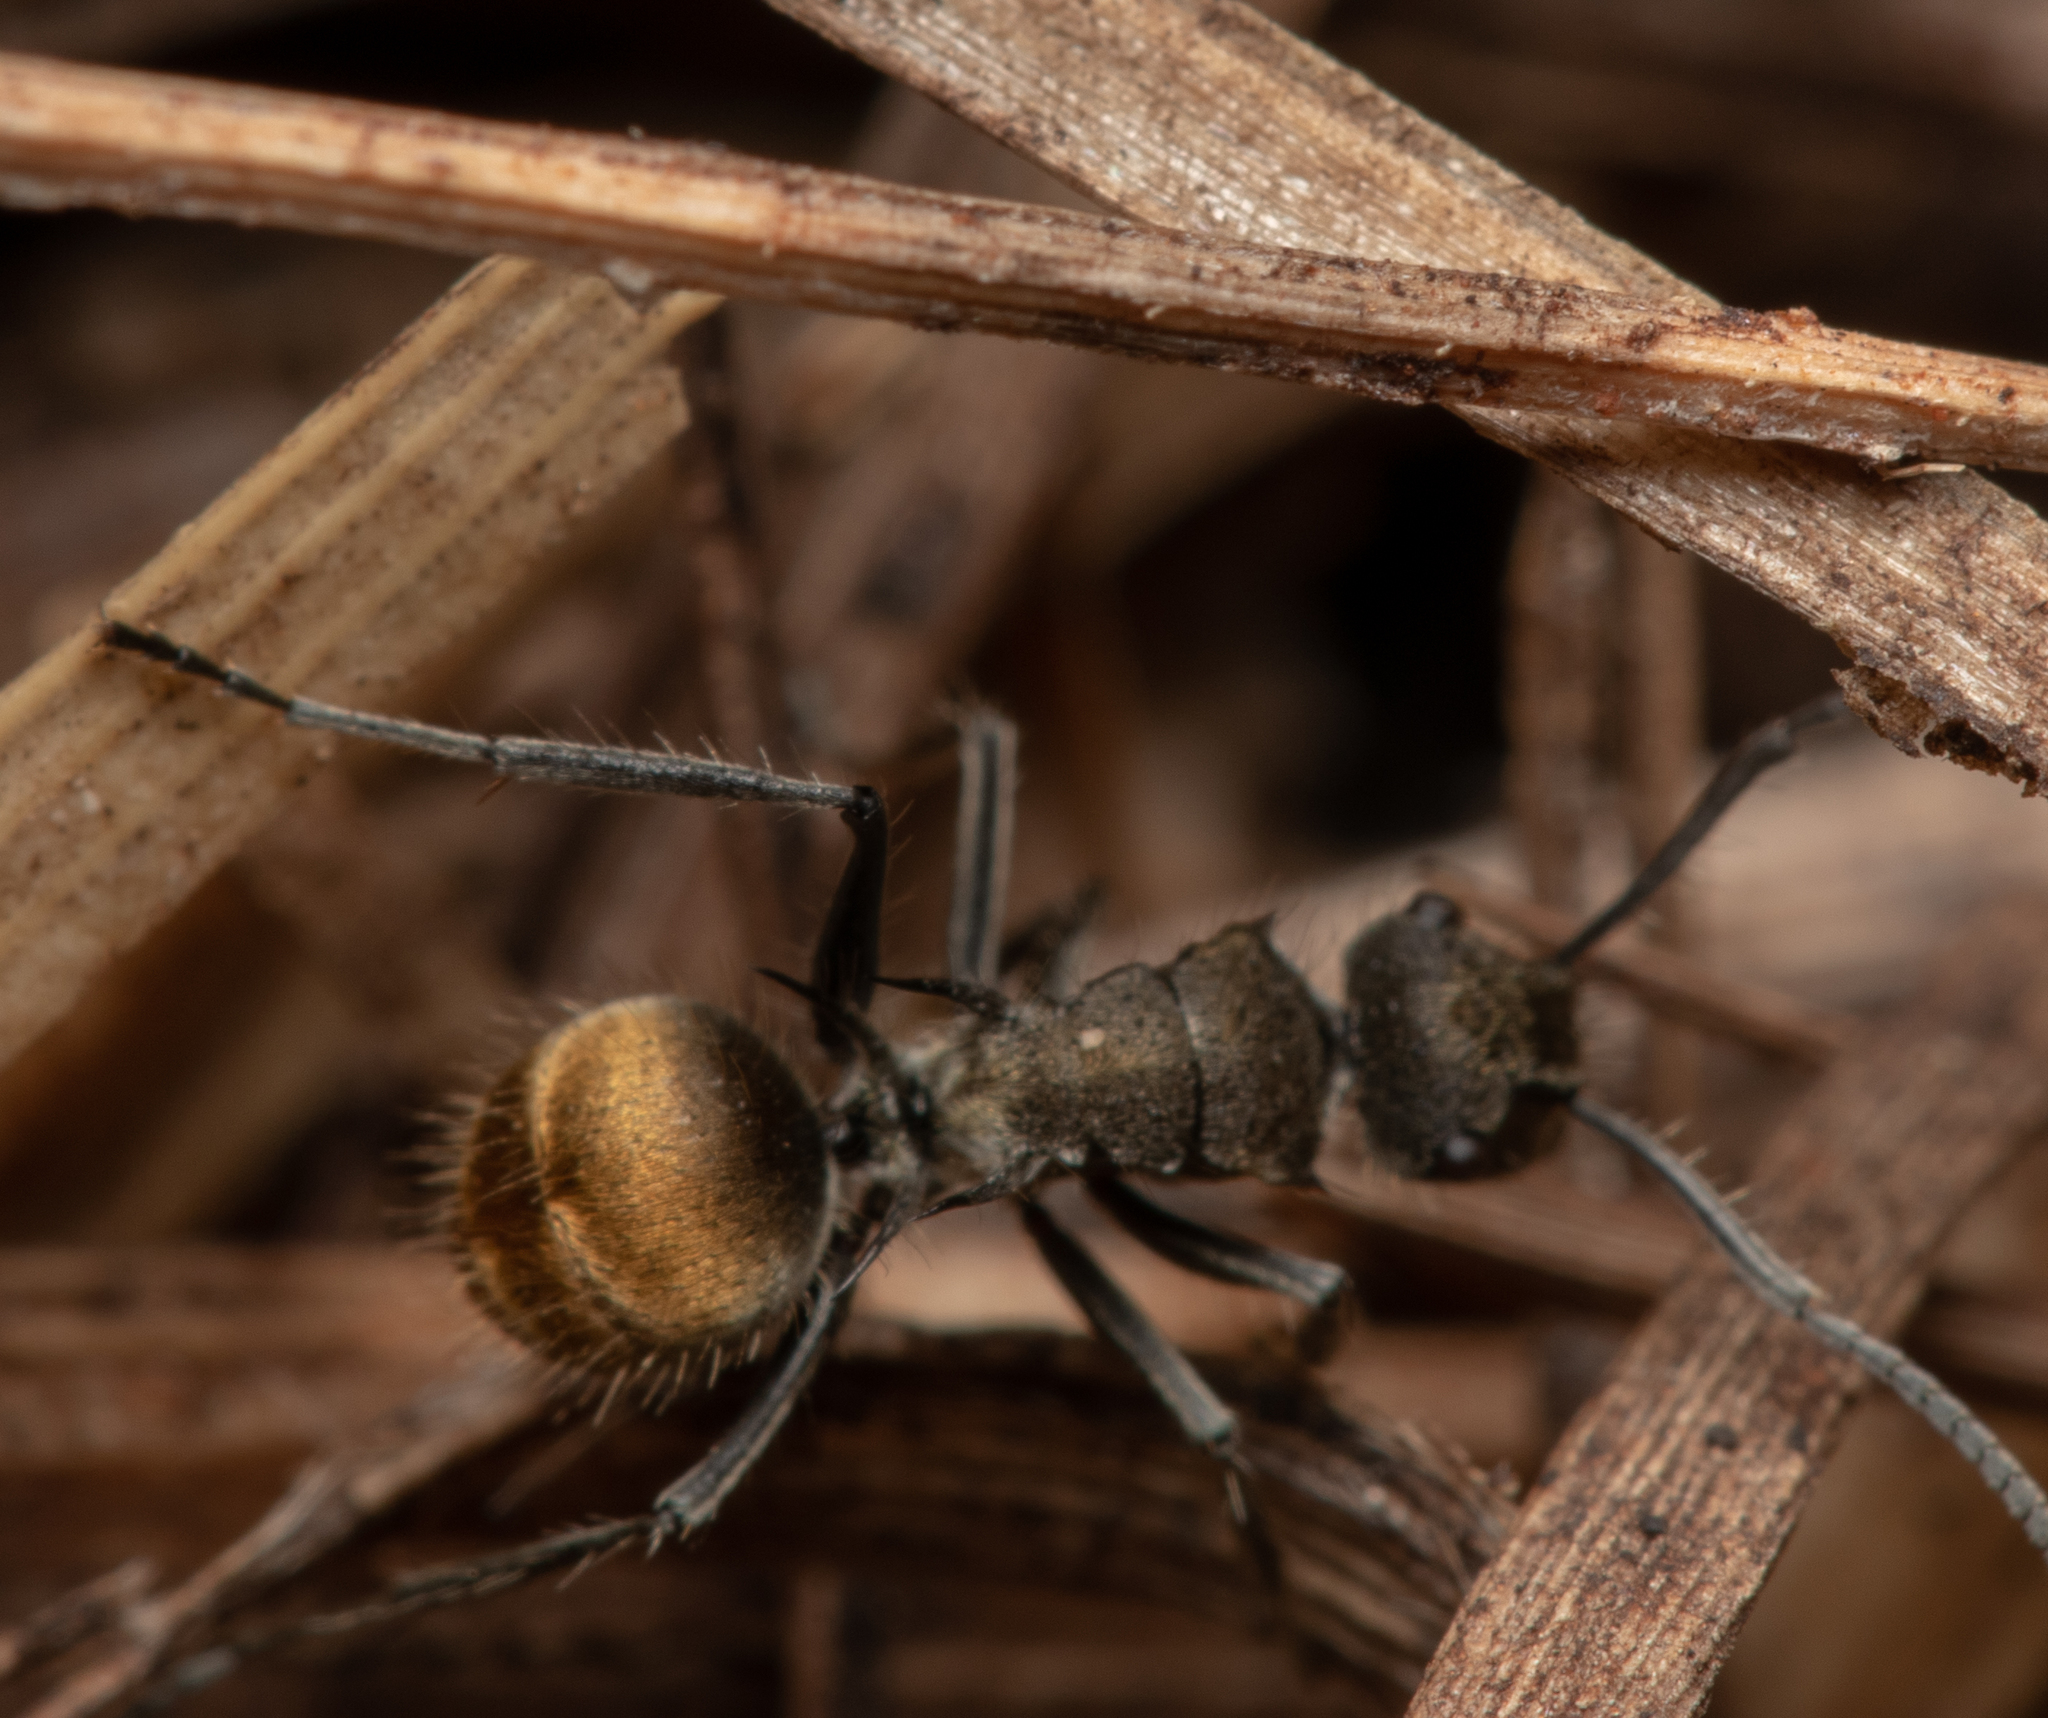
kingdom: Animalia
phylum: Arthropoda
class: Insecta
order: Hymenoptera
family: Formicidae
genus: Polyrhachis
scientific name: Polyrhachis aurea
